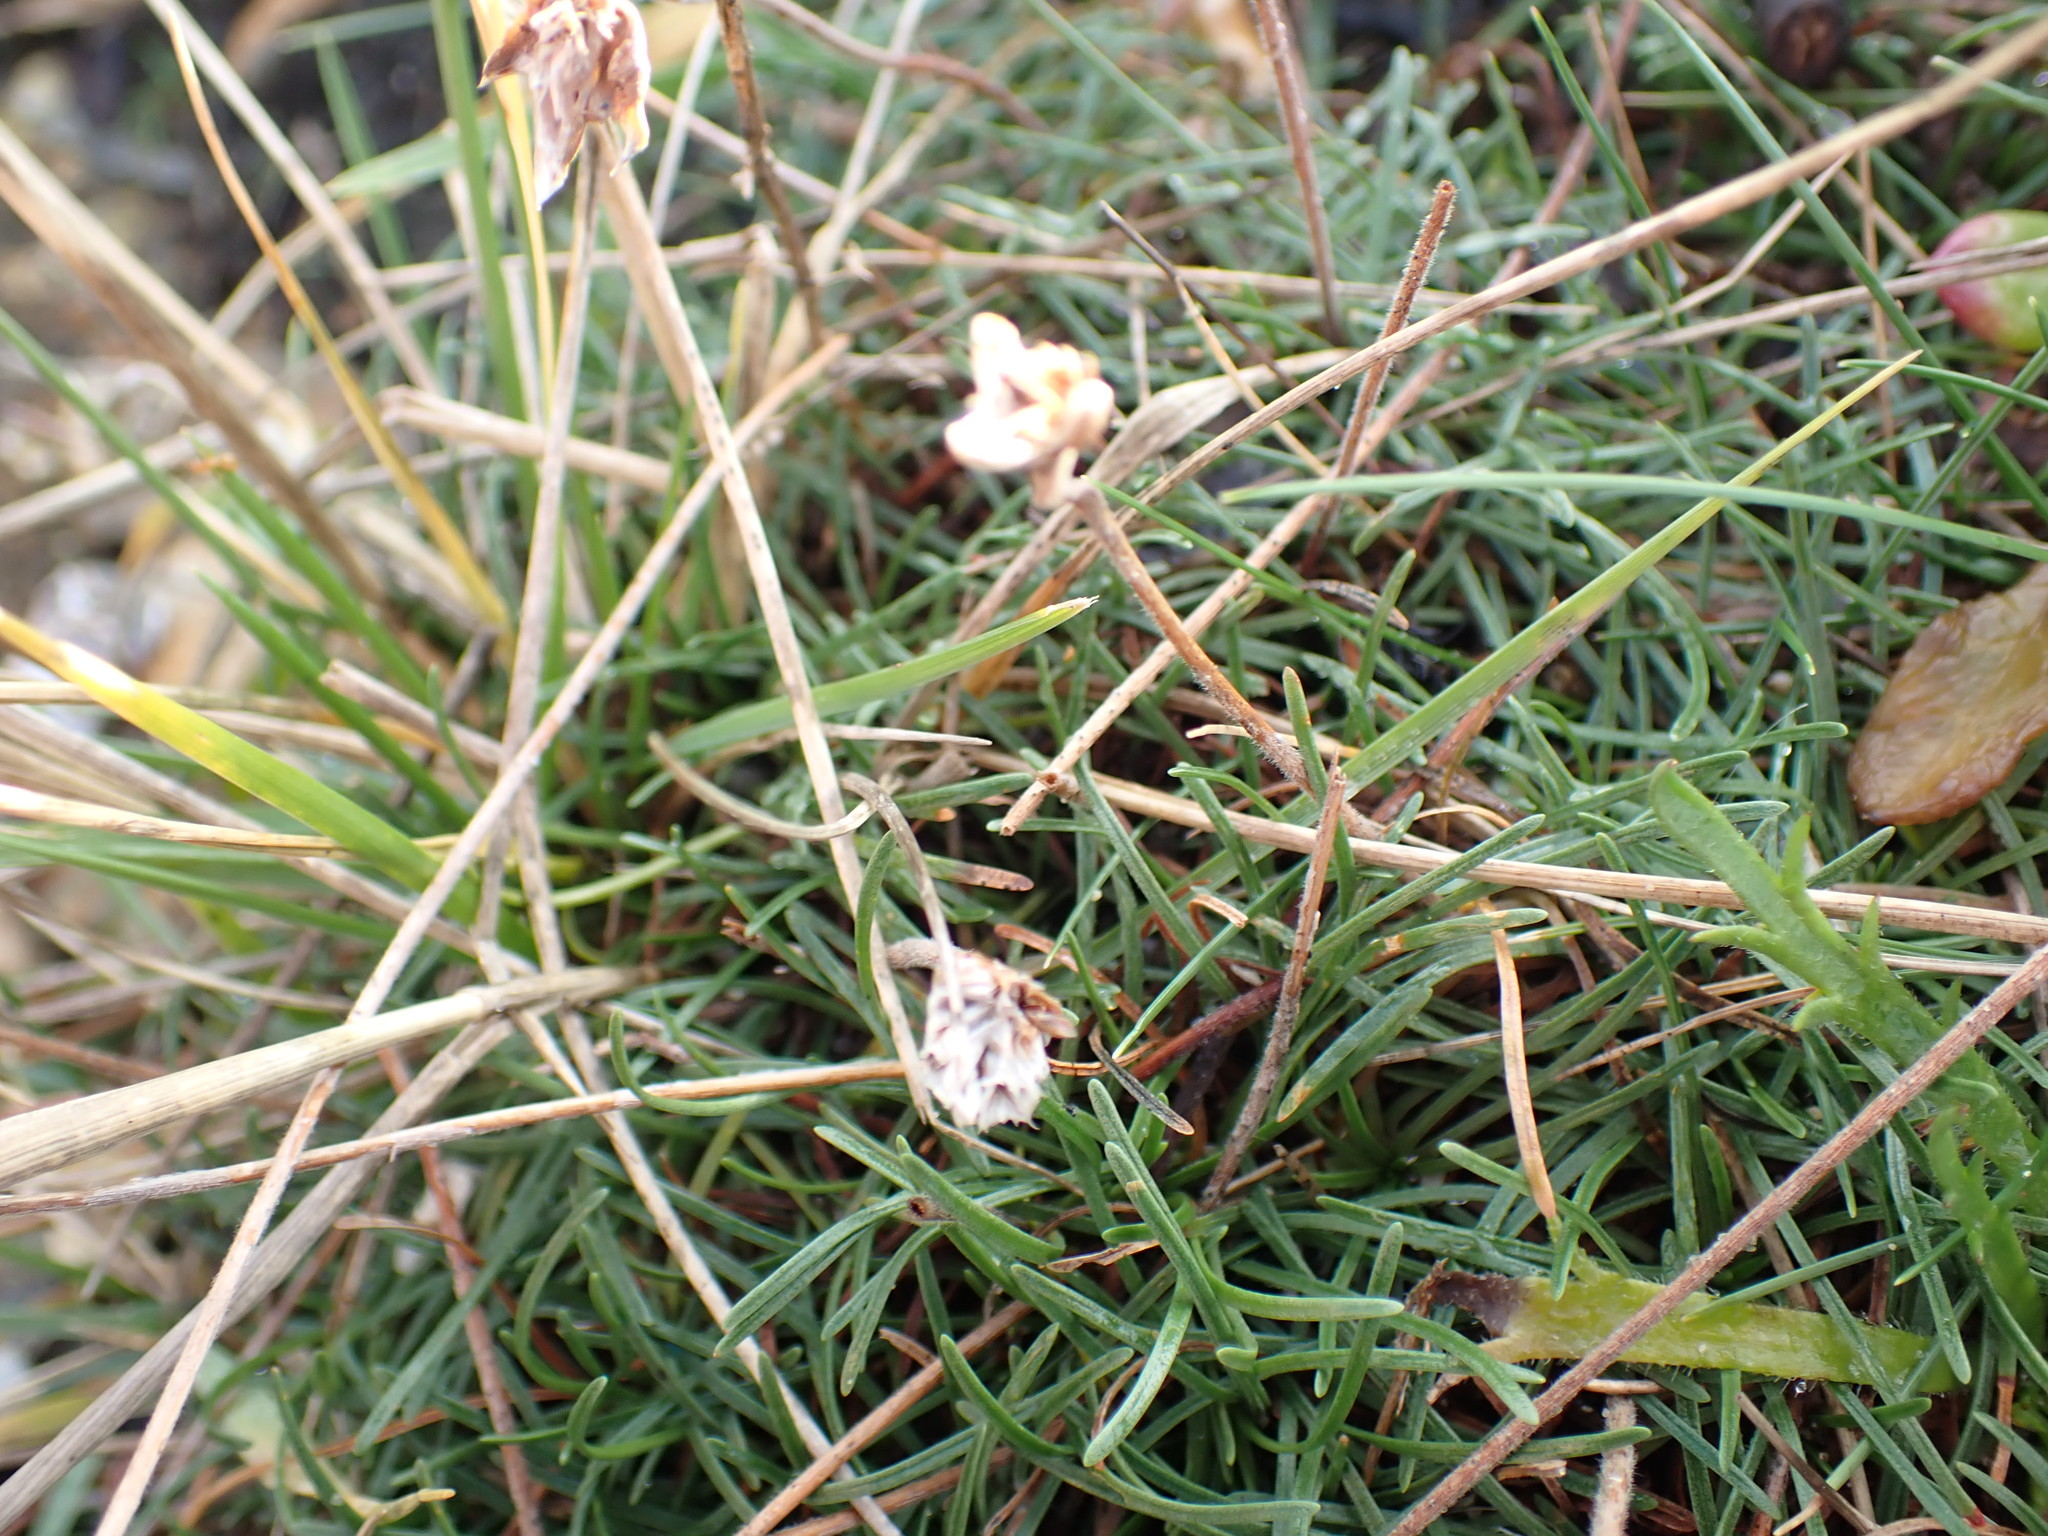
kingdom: Plantae
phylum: Tracheophyta
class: Magnoliopsida
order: Caryophyllales
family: Plumbaginaceae
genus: Armeria
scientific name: Armeria maritima
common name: Thrift
